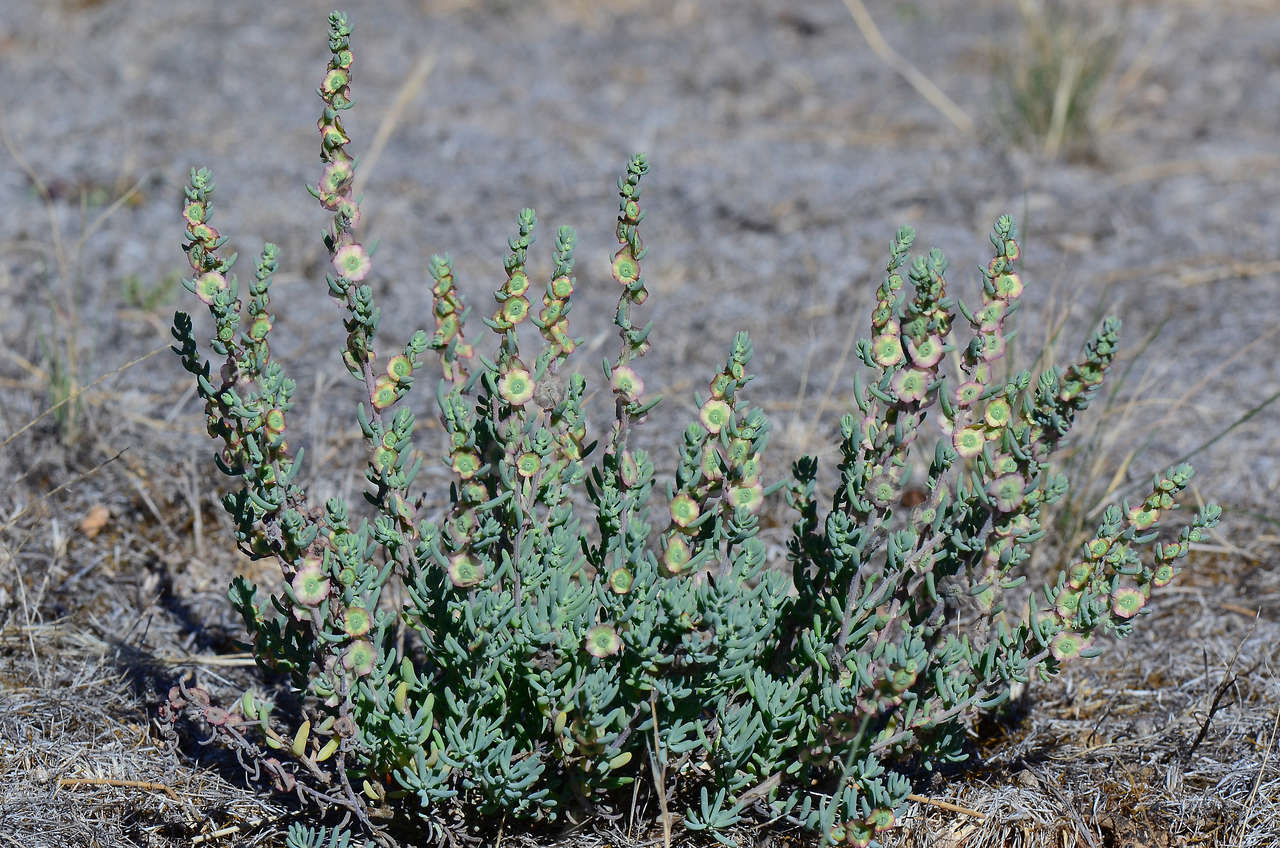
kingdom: Plantae
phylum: Tracheophyta
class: Magnoliopsida
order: Caryophyllales
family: Amaranthaceae
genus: Maireana
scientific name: Maireana decalvans
